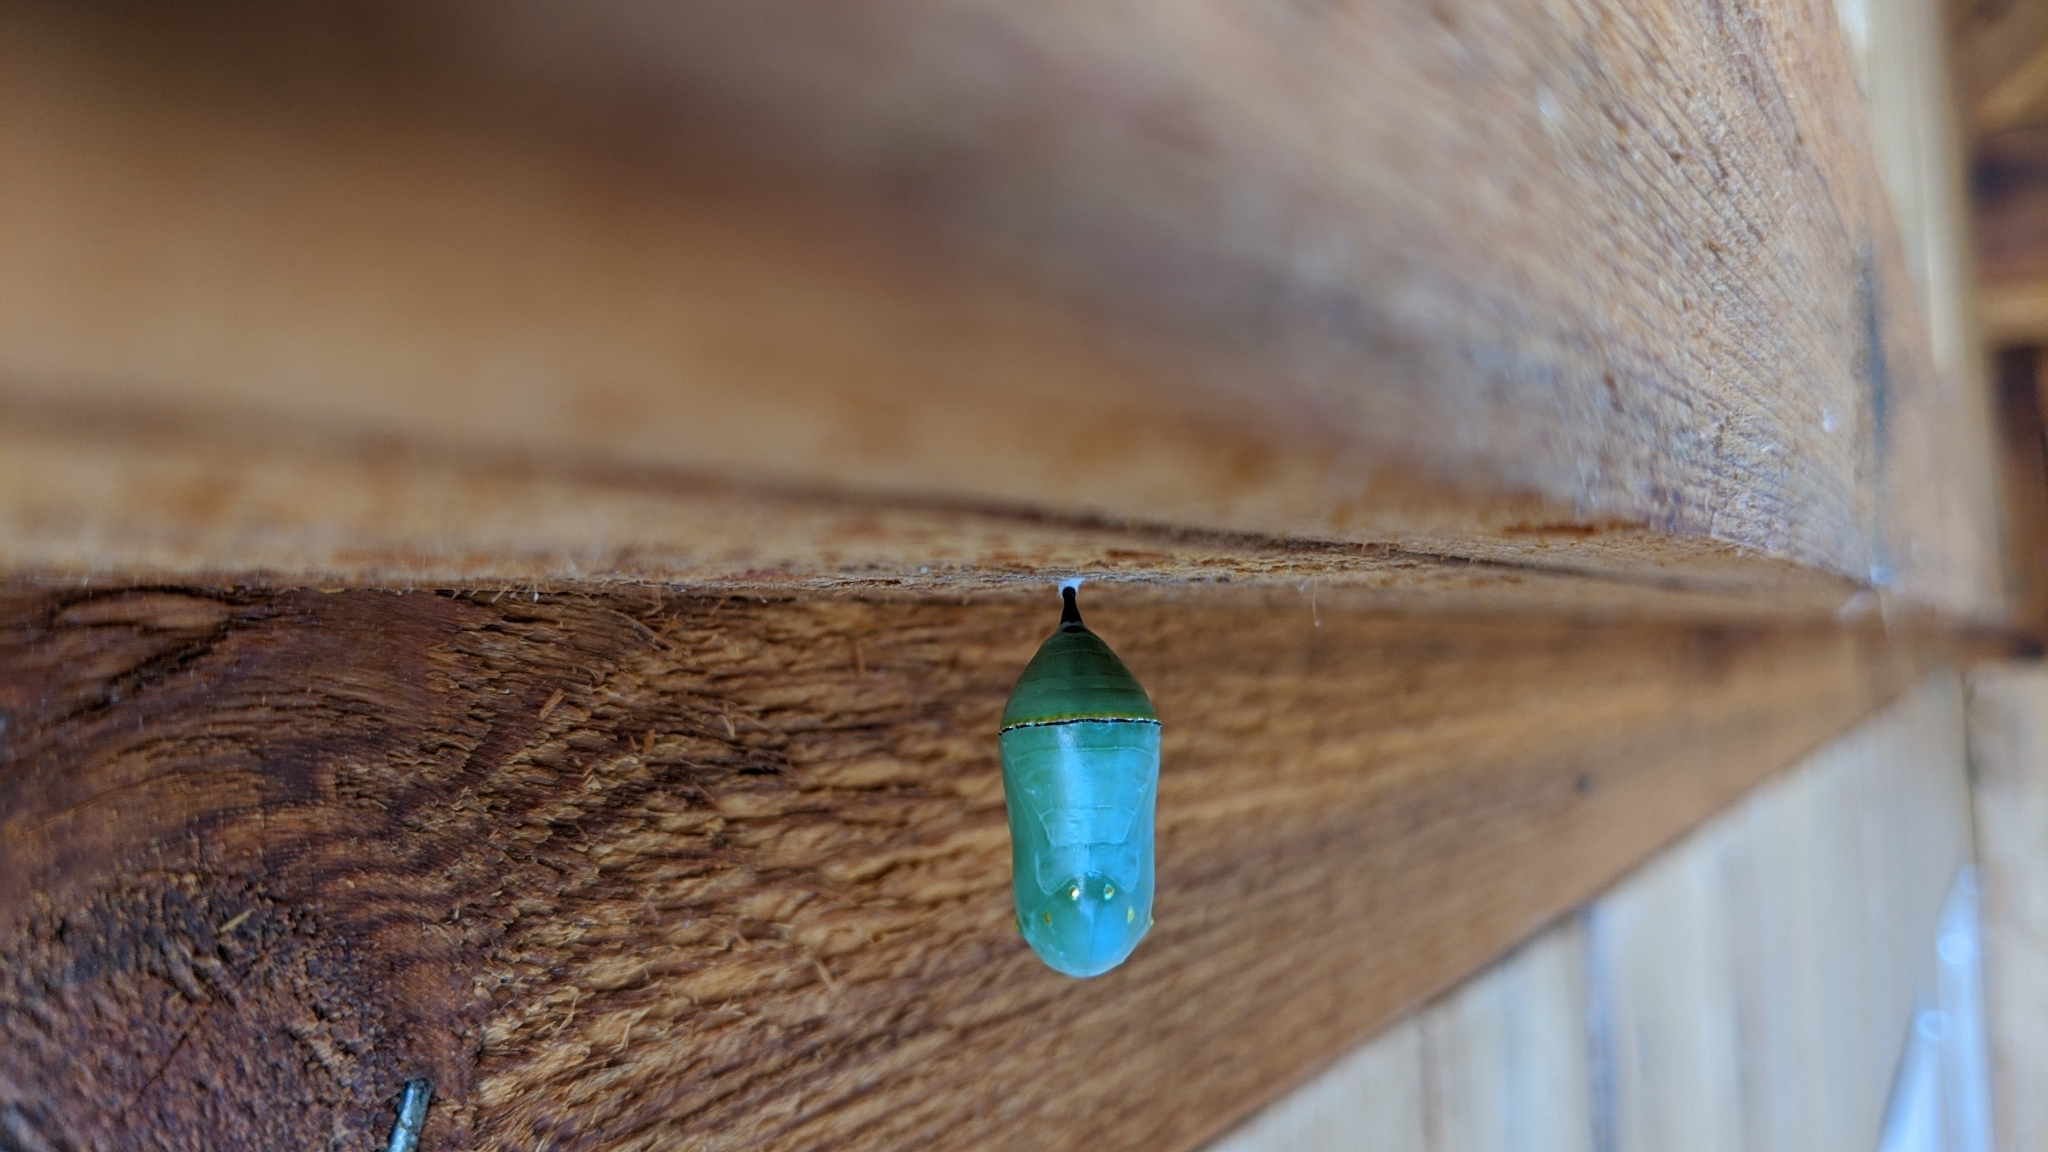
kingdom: Animalia
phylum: Arthropoda
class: Insecta
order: Lepidoptera
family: Nymphalidae
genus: Danaus
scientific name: Danaus plexippus
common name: Monarch
